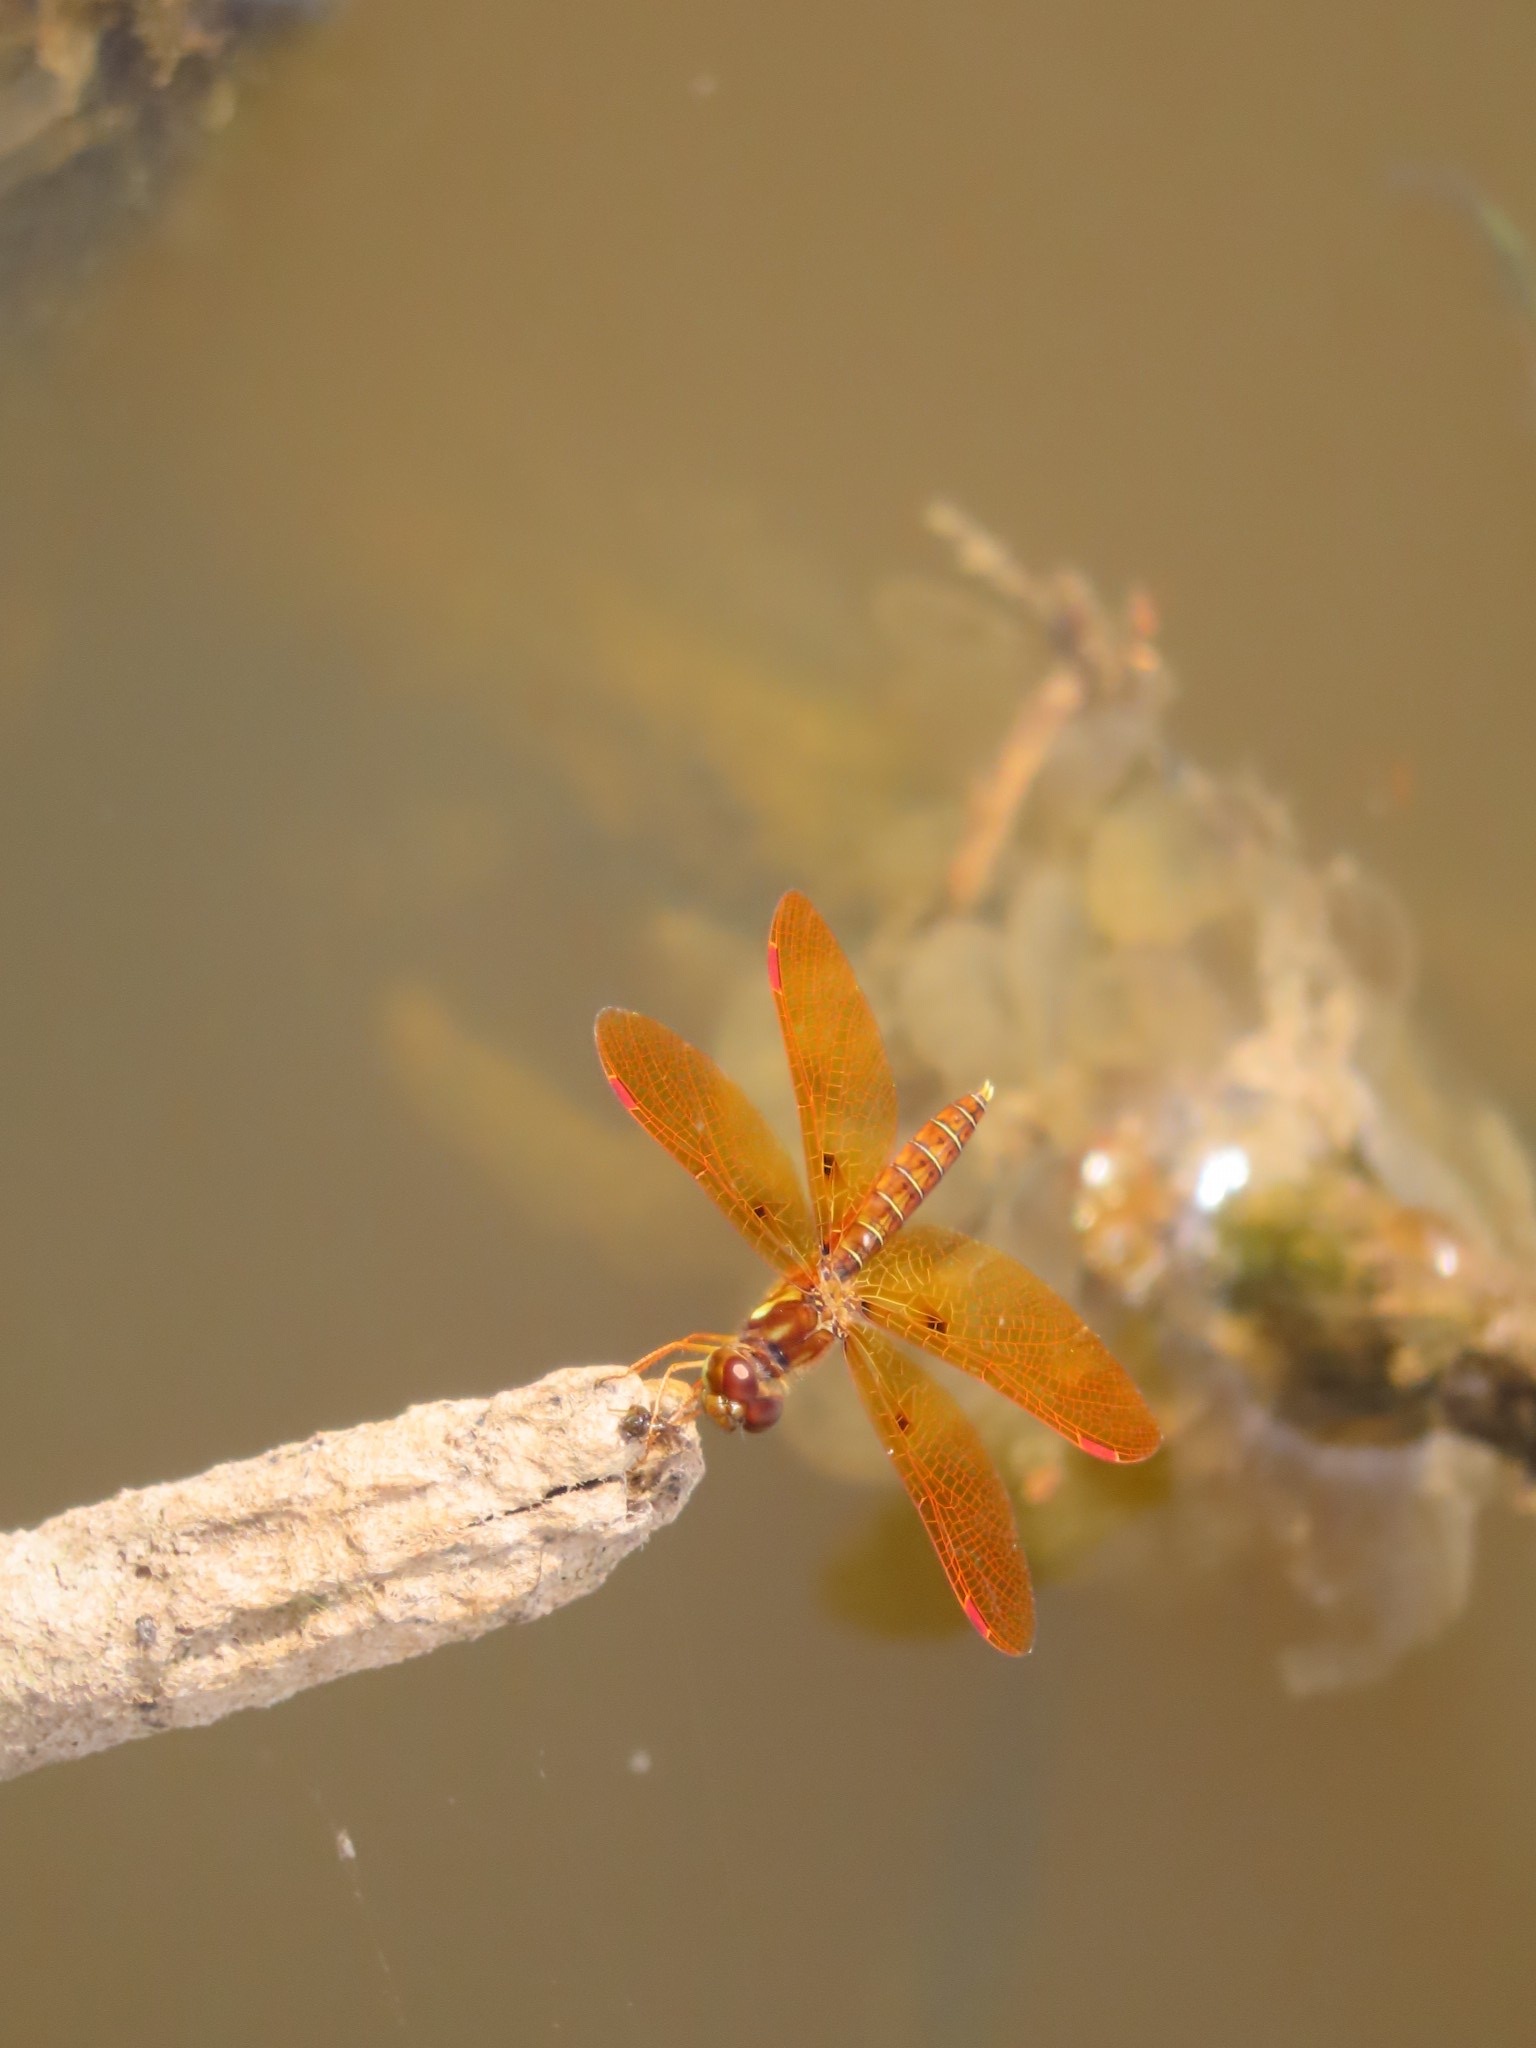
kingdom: Animalia
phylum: Arthropoda
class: Insecta
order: Odonata
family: Libellulidae
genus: Perithemis
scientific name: Perithemis tenera
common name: Eastern amberwing
